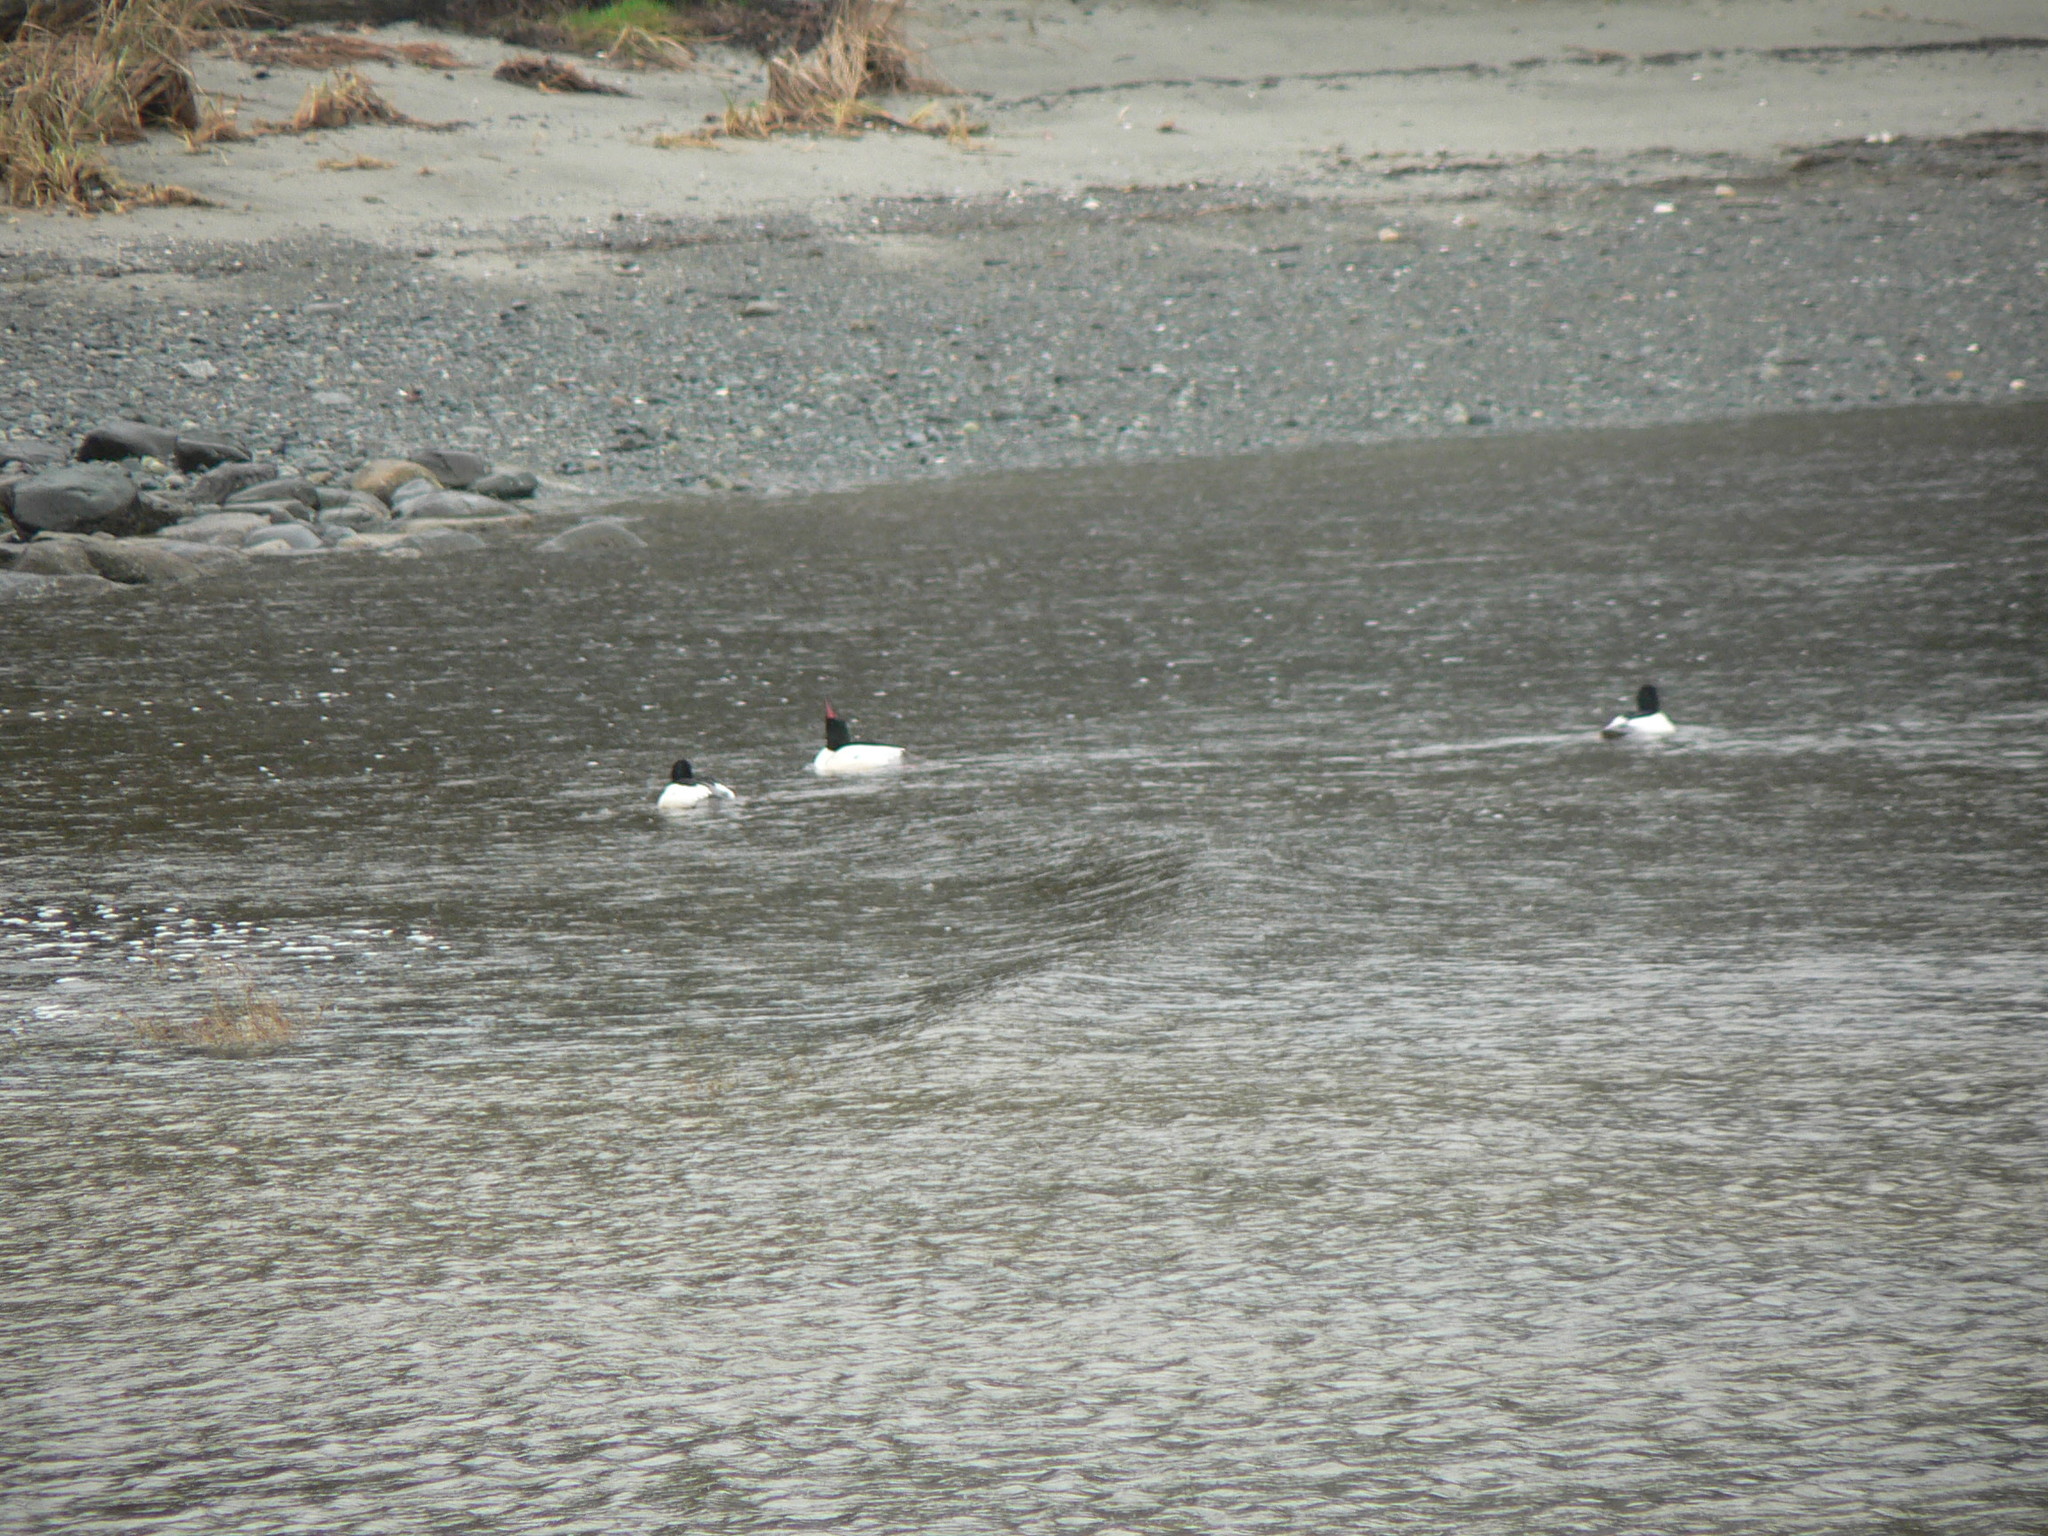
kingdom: Animalia
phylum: Chordata
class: Aves
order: Anseriformes
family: Anatidae
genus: Mergus
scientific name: Mergus merganser
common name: Common merganser
